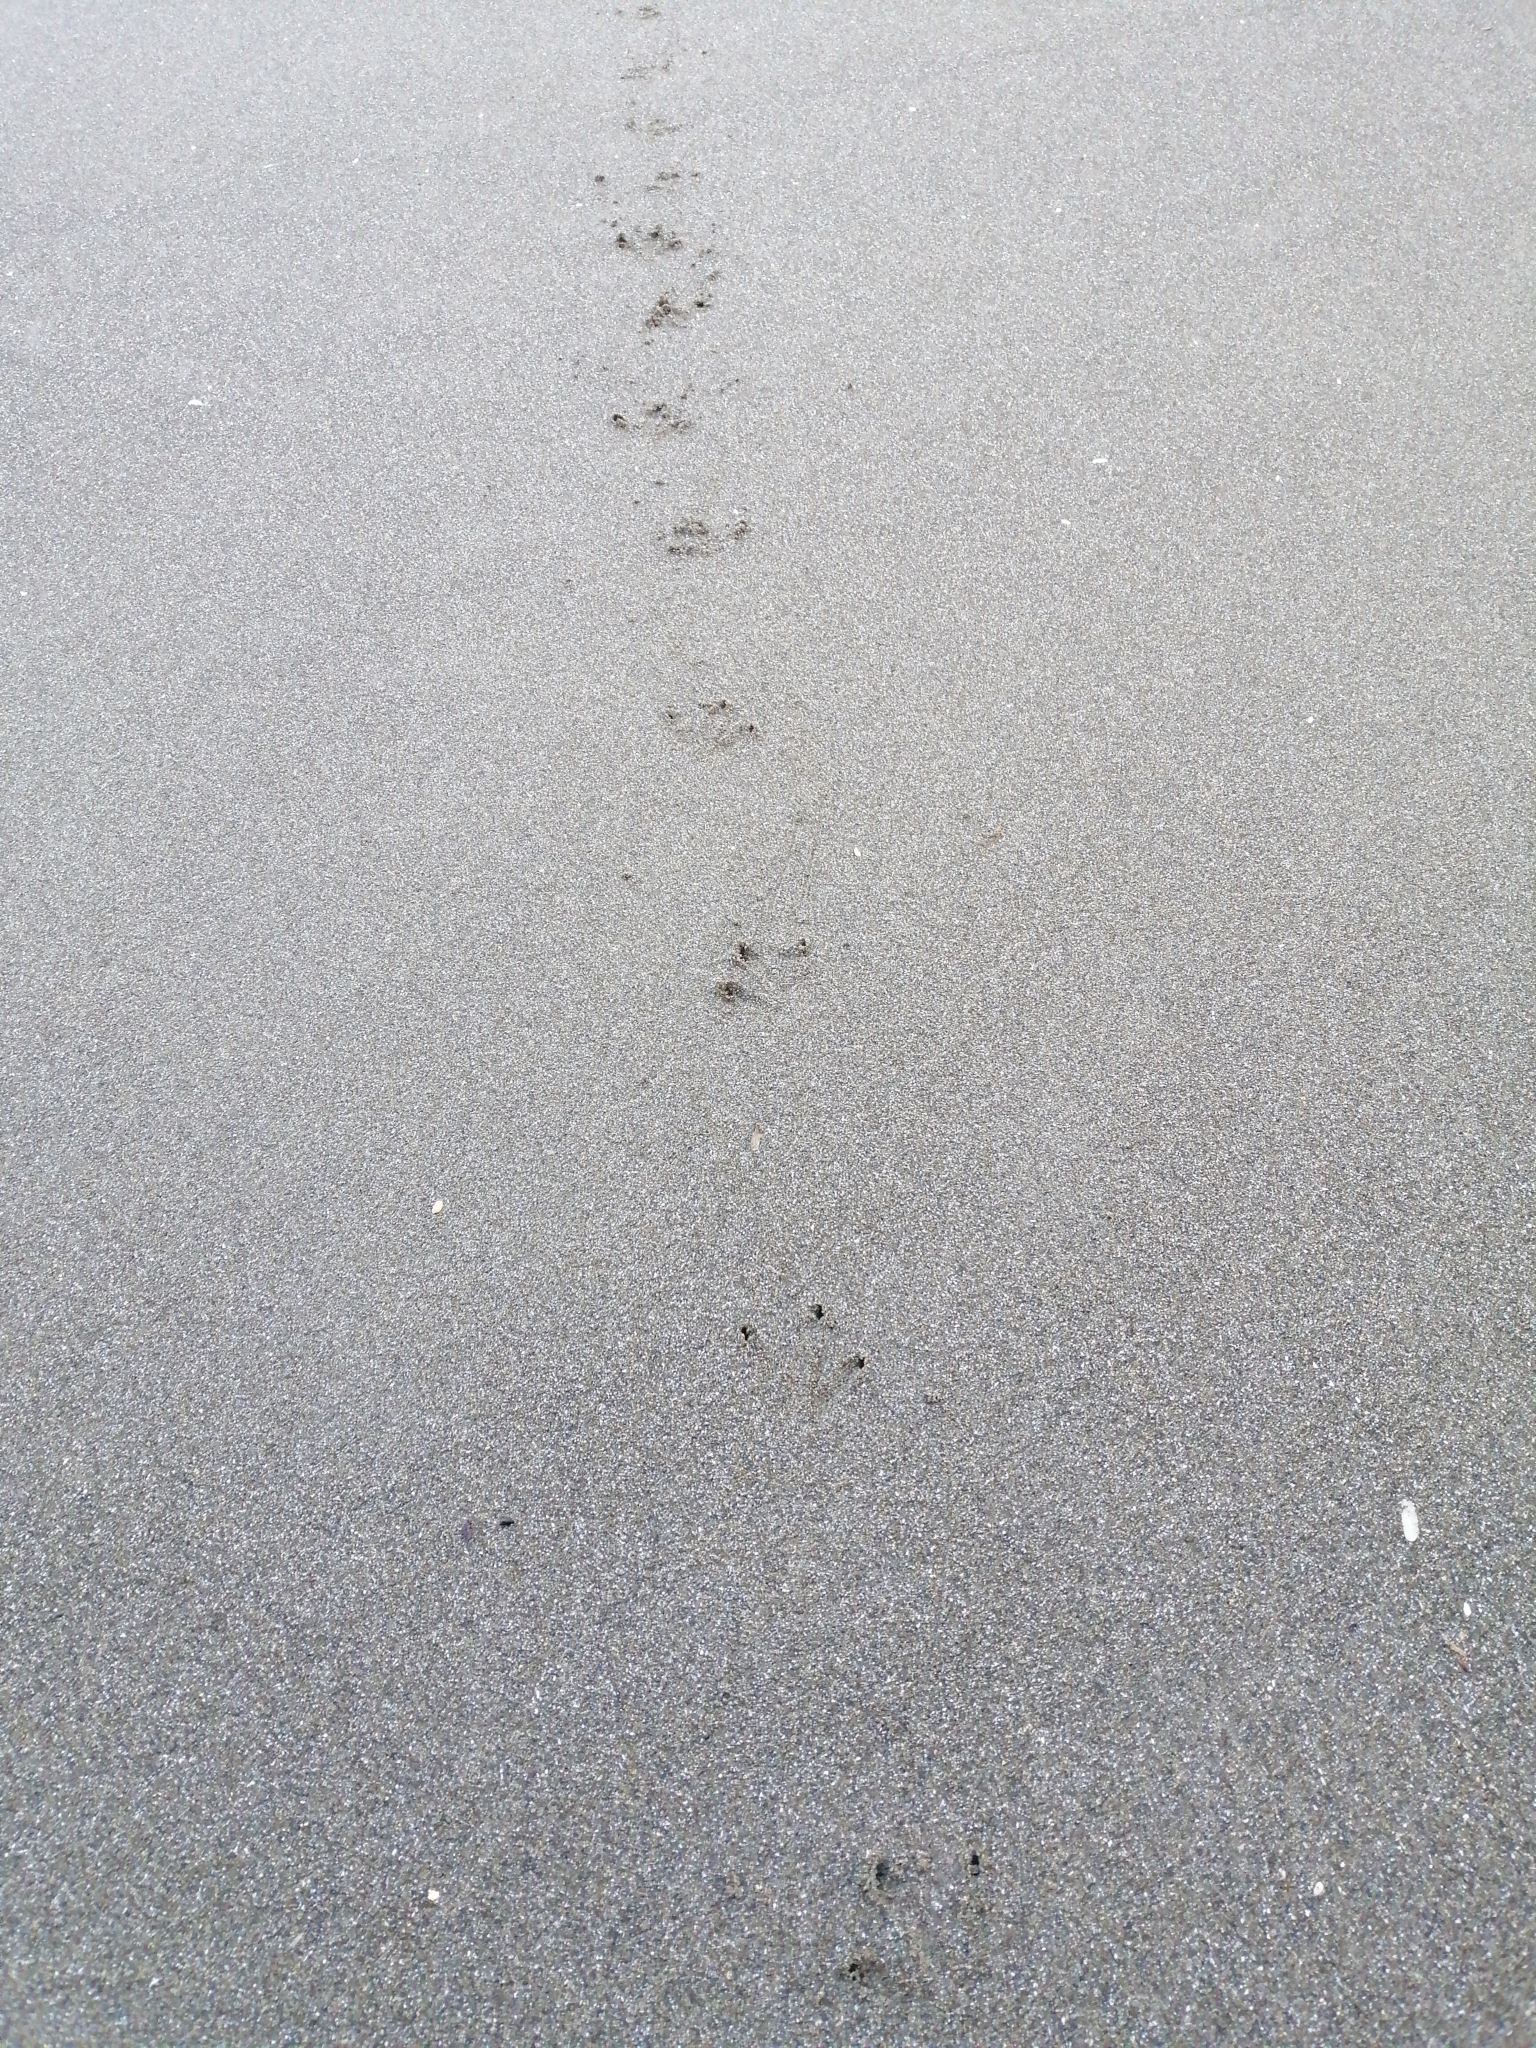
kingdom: Animalia
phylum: Chordata
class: Aves
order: Sphenisciformes
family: Spheniscidae
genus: Eudyptula
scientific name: Eudyptula minor
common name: Little penguin
